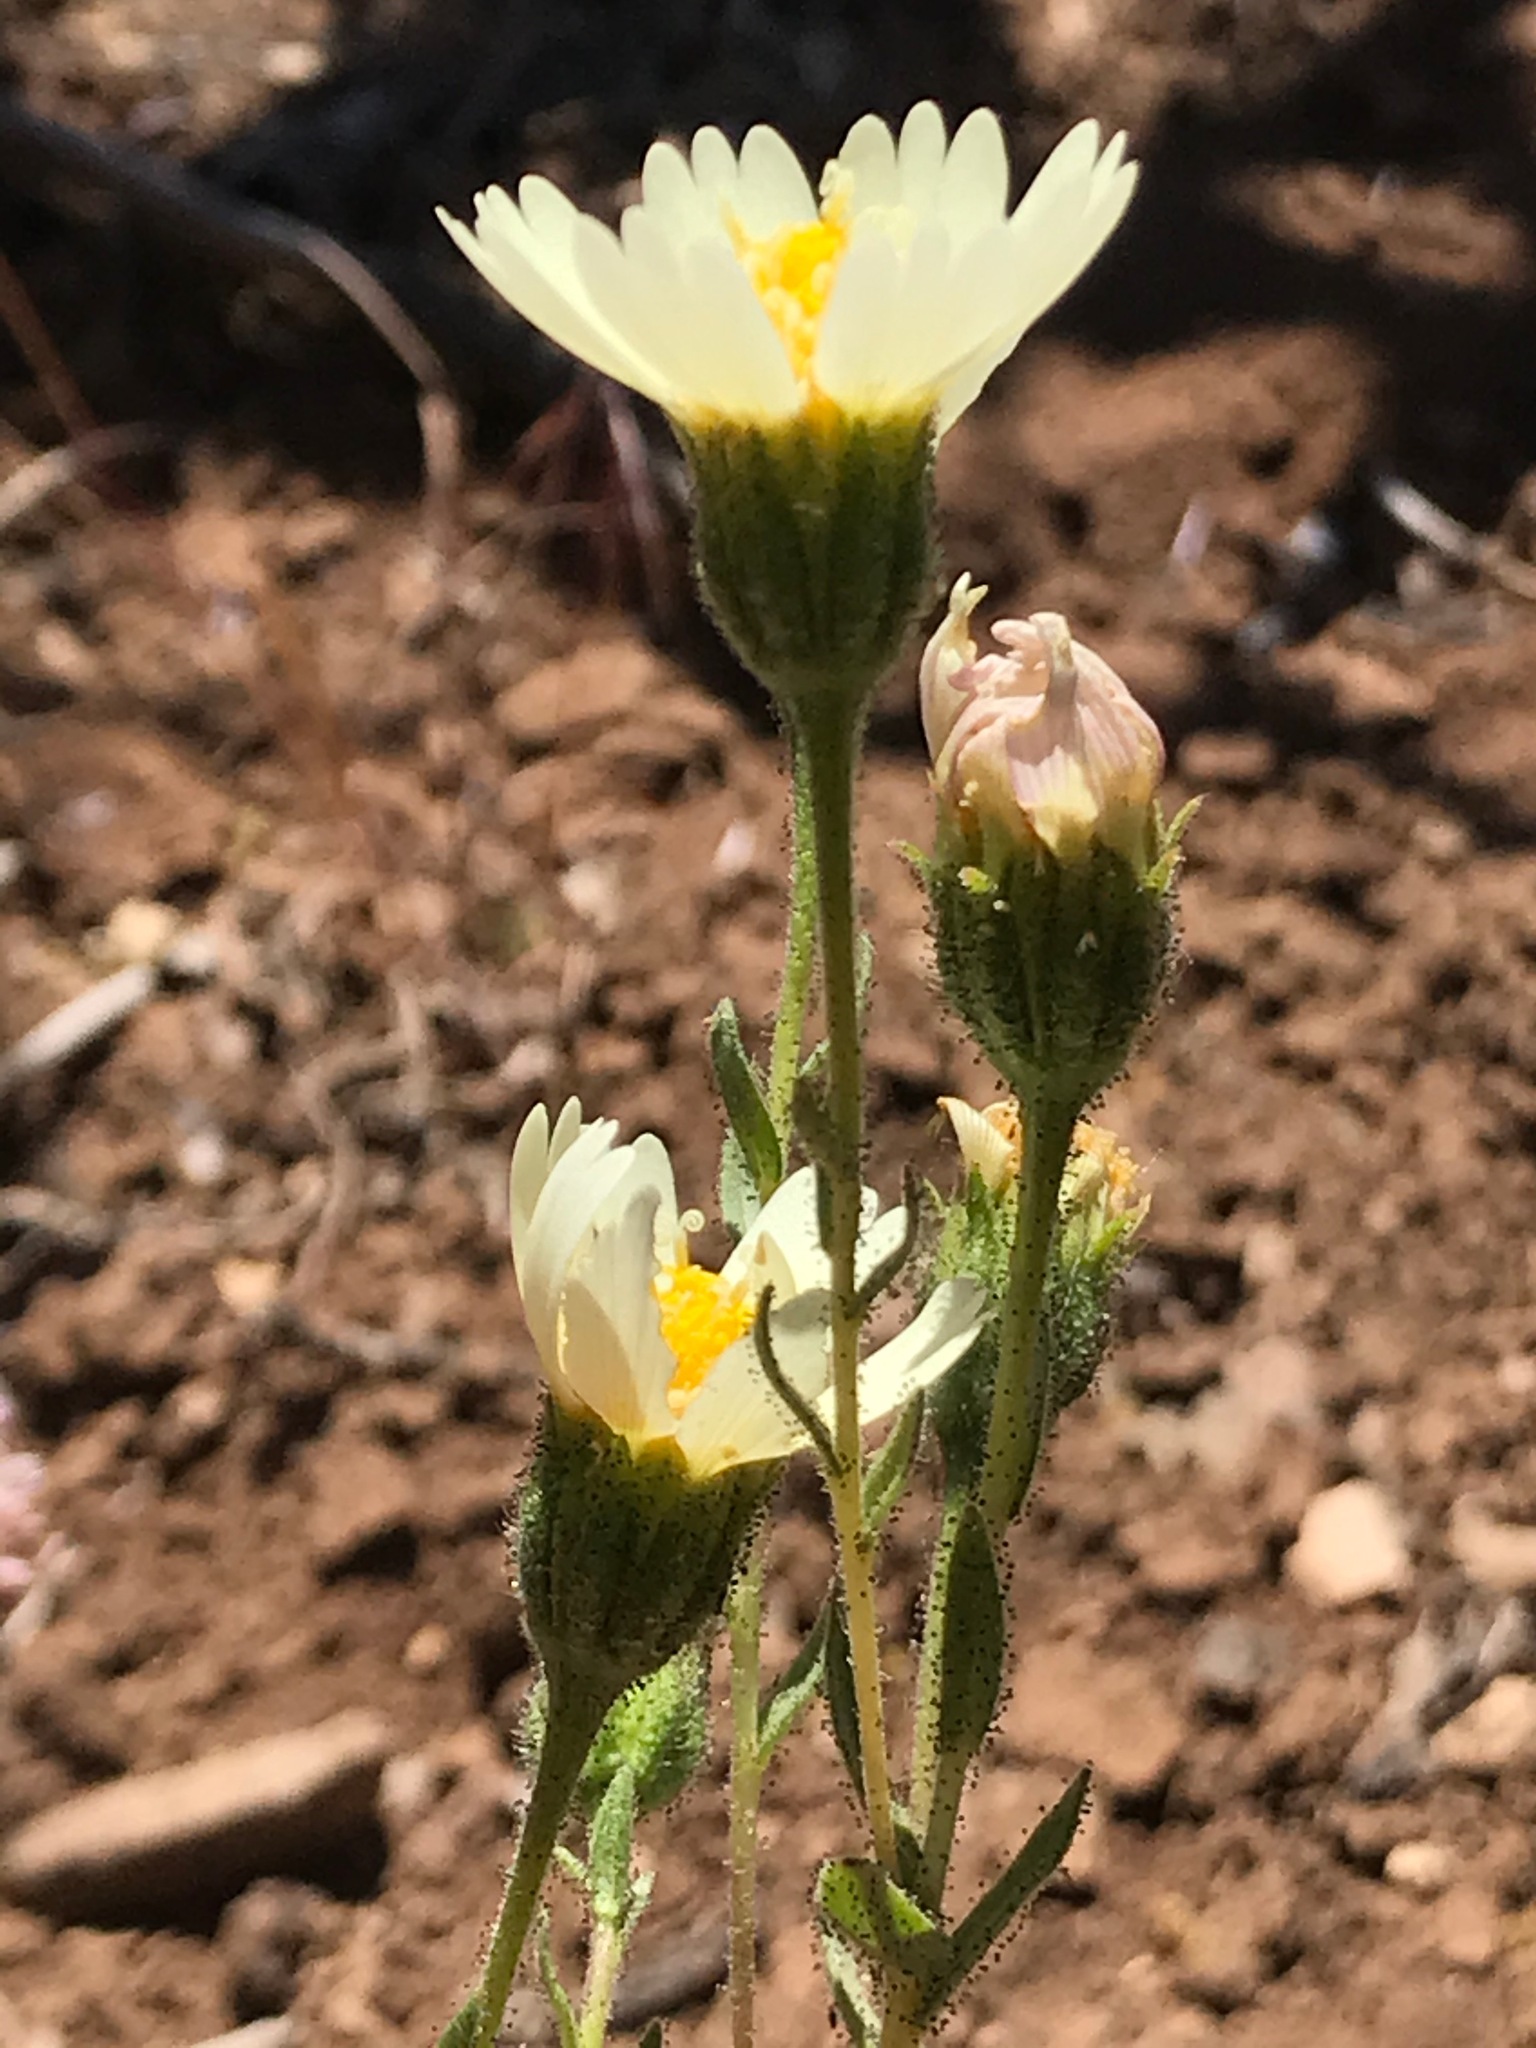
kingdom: Plantae
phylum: Tracheophyta
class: Magnoliopsida
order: Asterales
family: Asteraceae
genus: Layia
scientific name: Layia heterotricha
